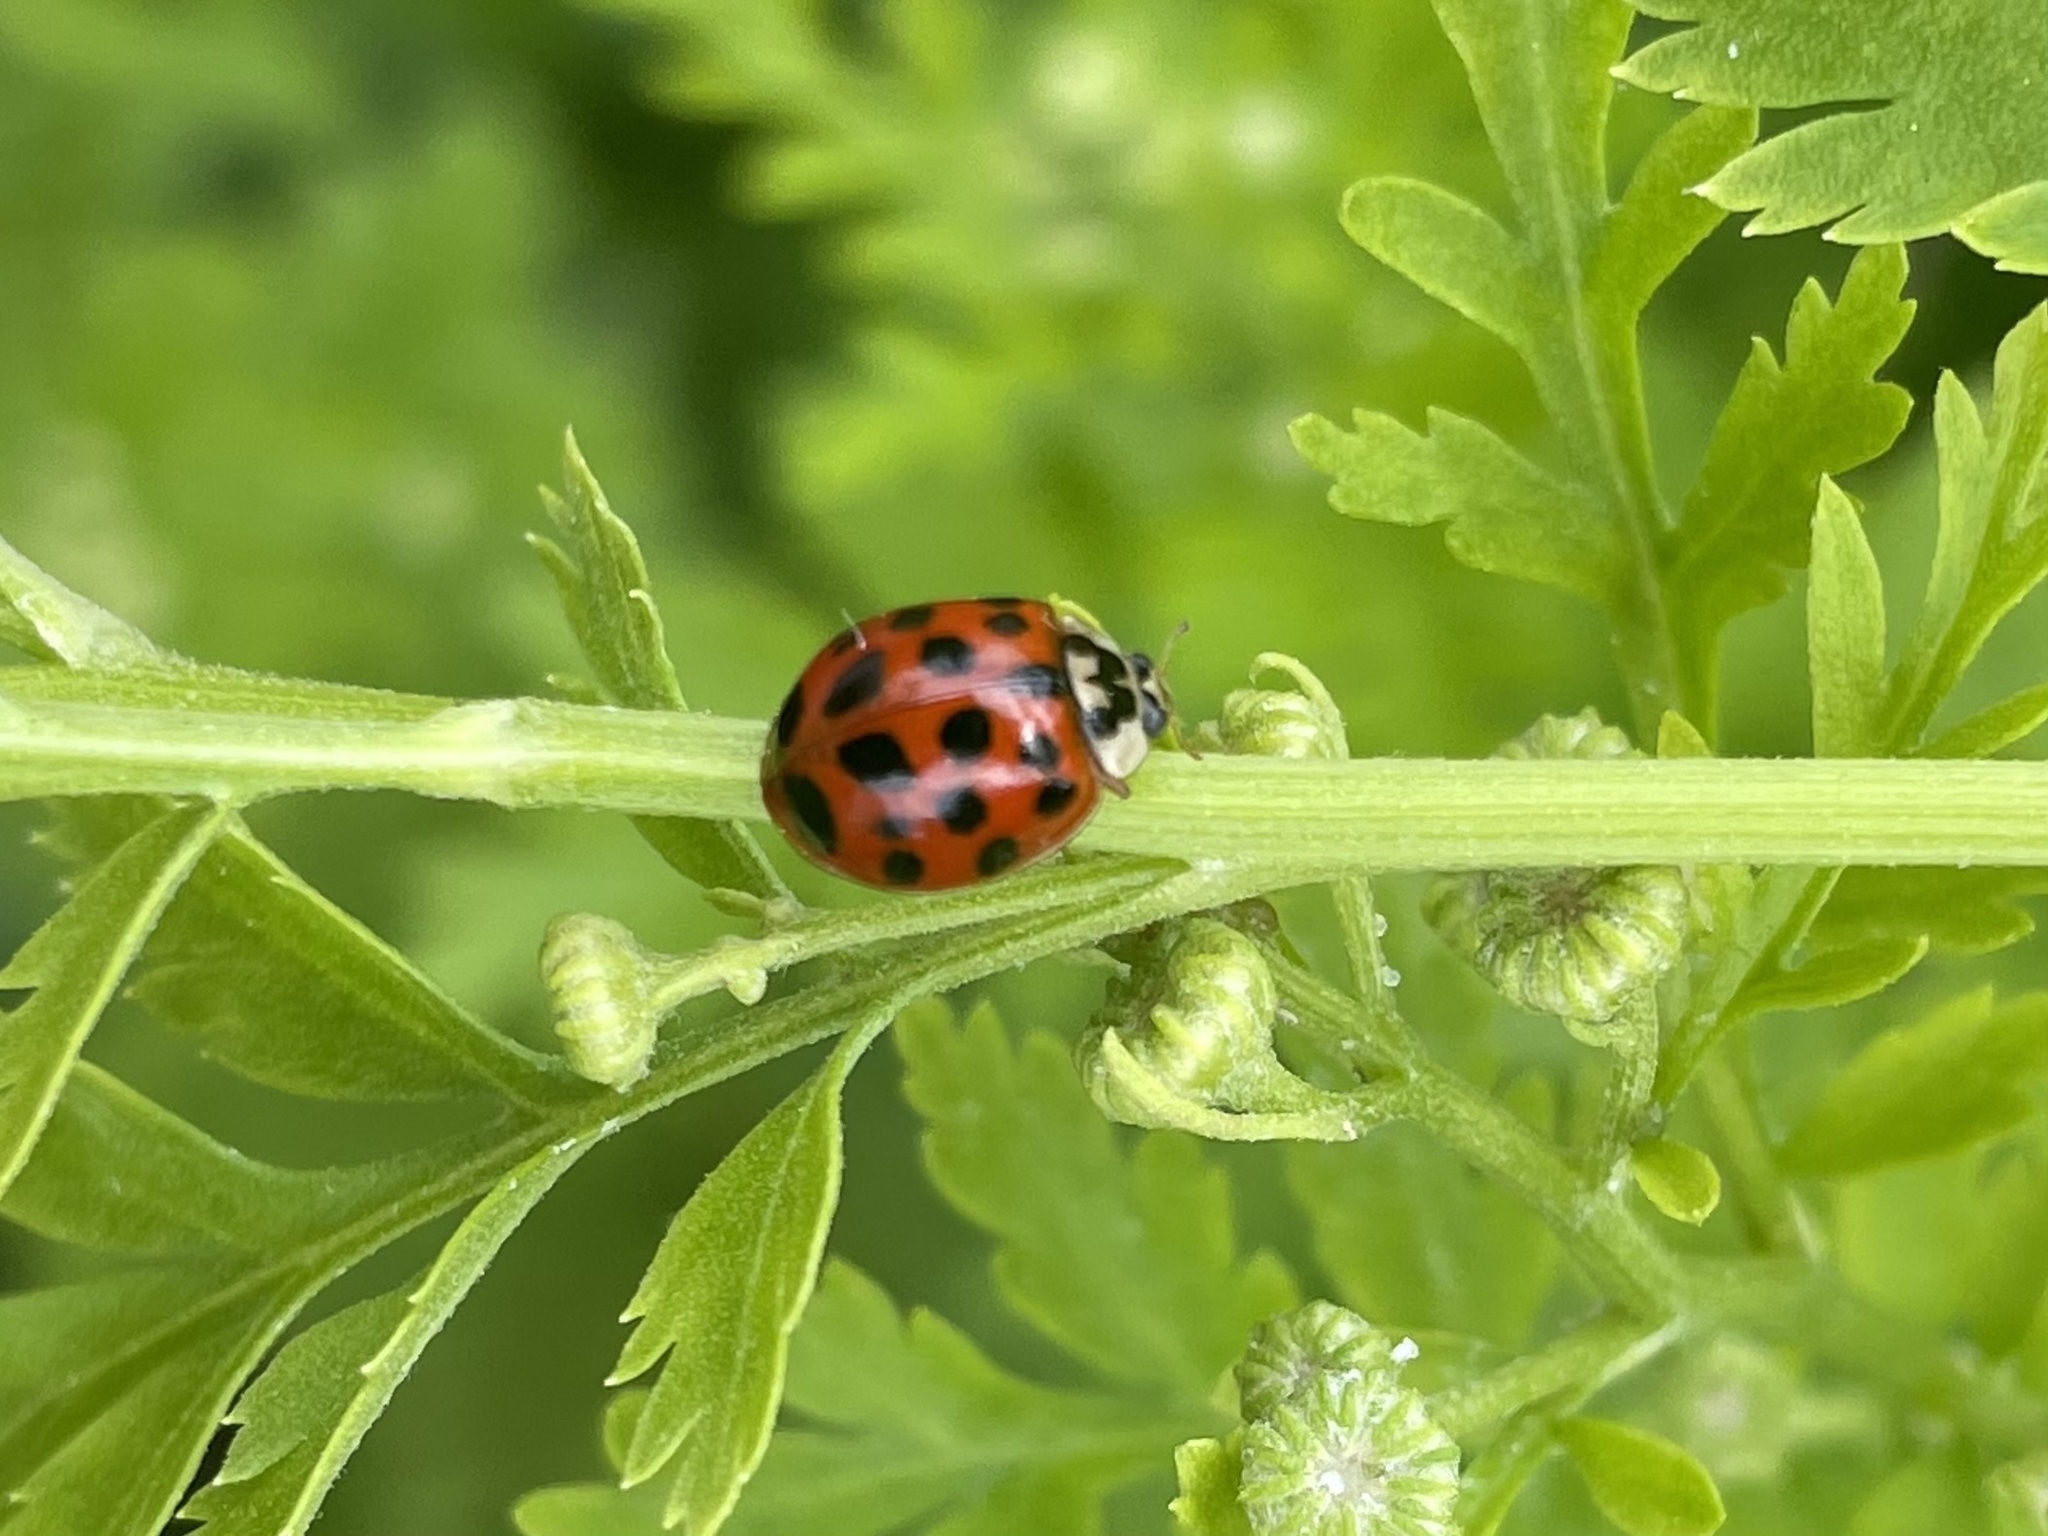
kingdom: Animalia
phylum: Arthropoda
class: Insecta
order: Coleoptera
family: Coccinellidae
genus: Harmonia
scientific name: Harmonia axyridis
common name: Harlequin ladybird
